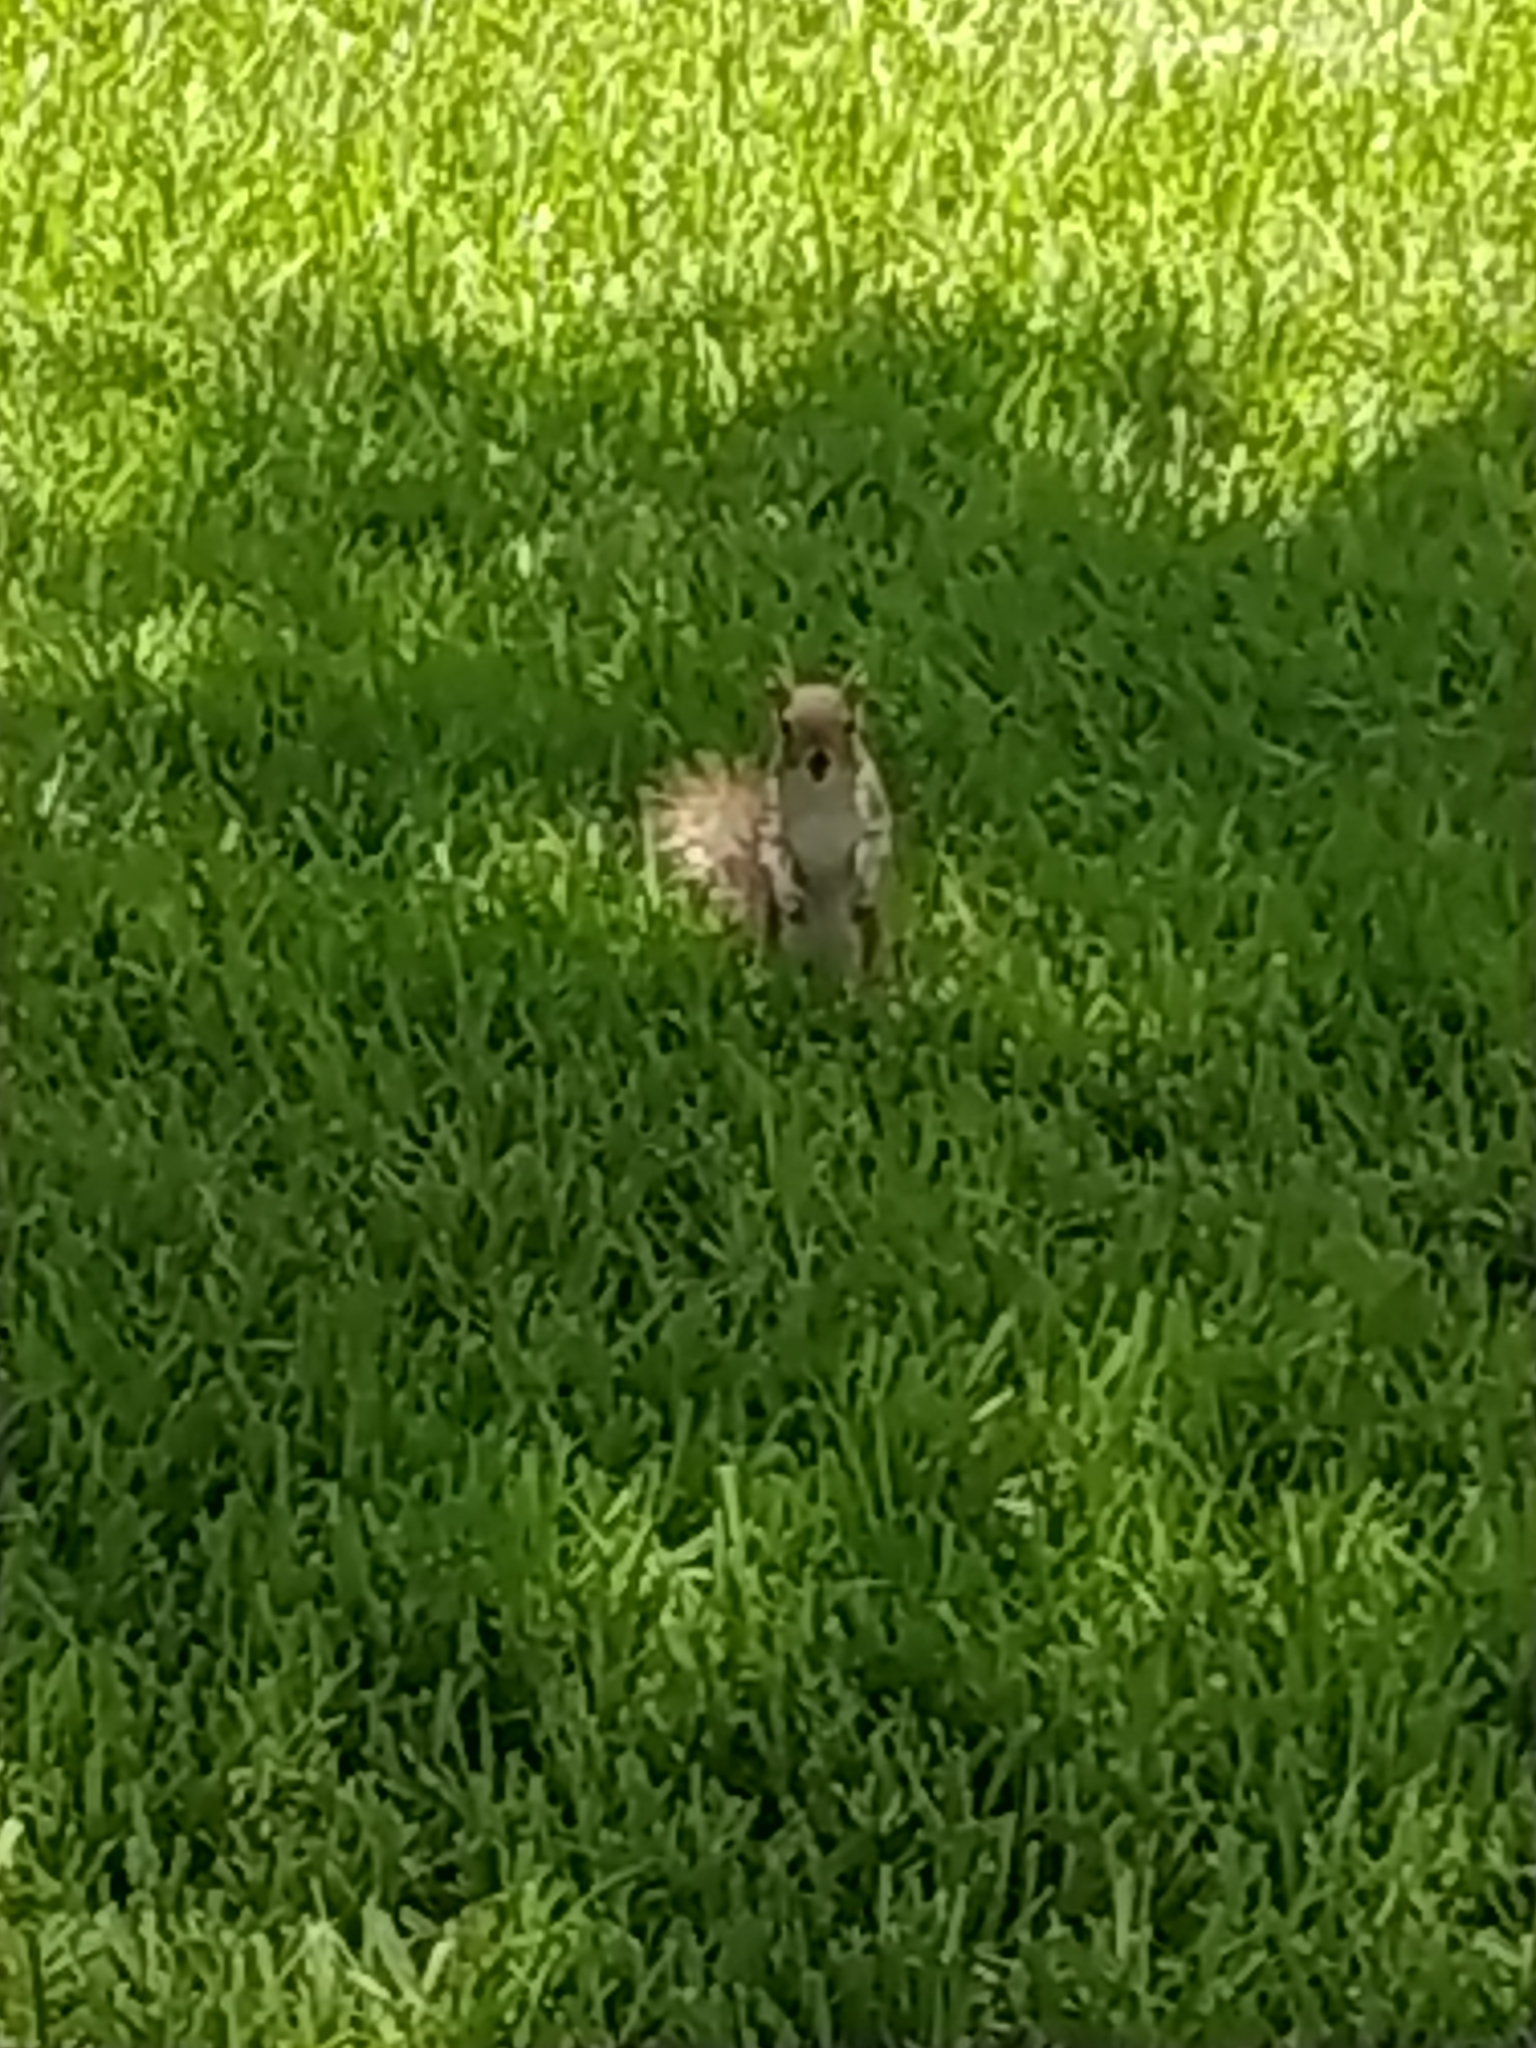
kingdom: Animalia
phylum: Chordata
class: Mammalia
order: Rodentia
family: Sciuridae
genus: Sciurus
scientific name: Sciurus carolinensis
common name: Eastern gray squirrel
